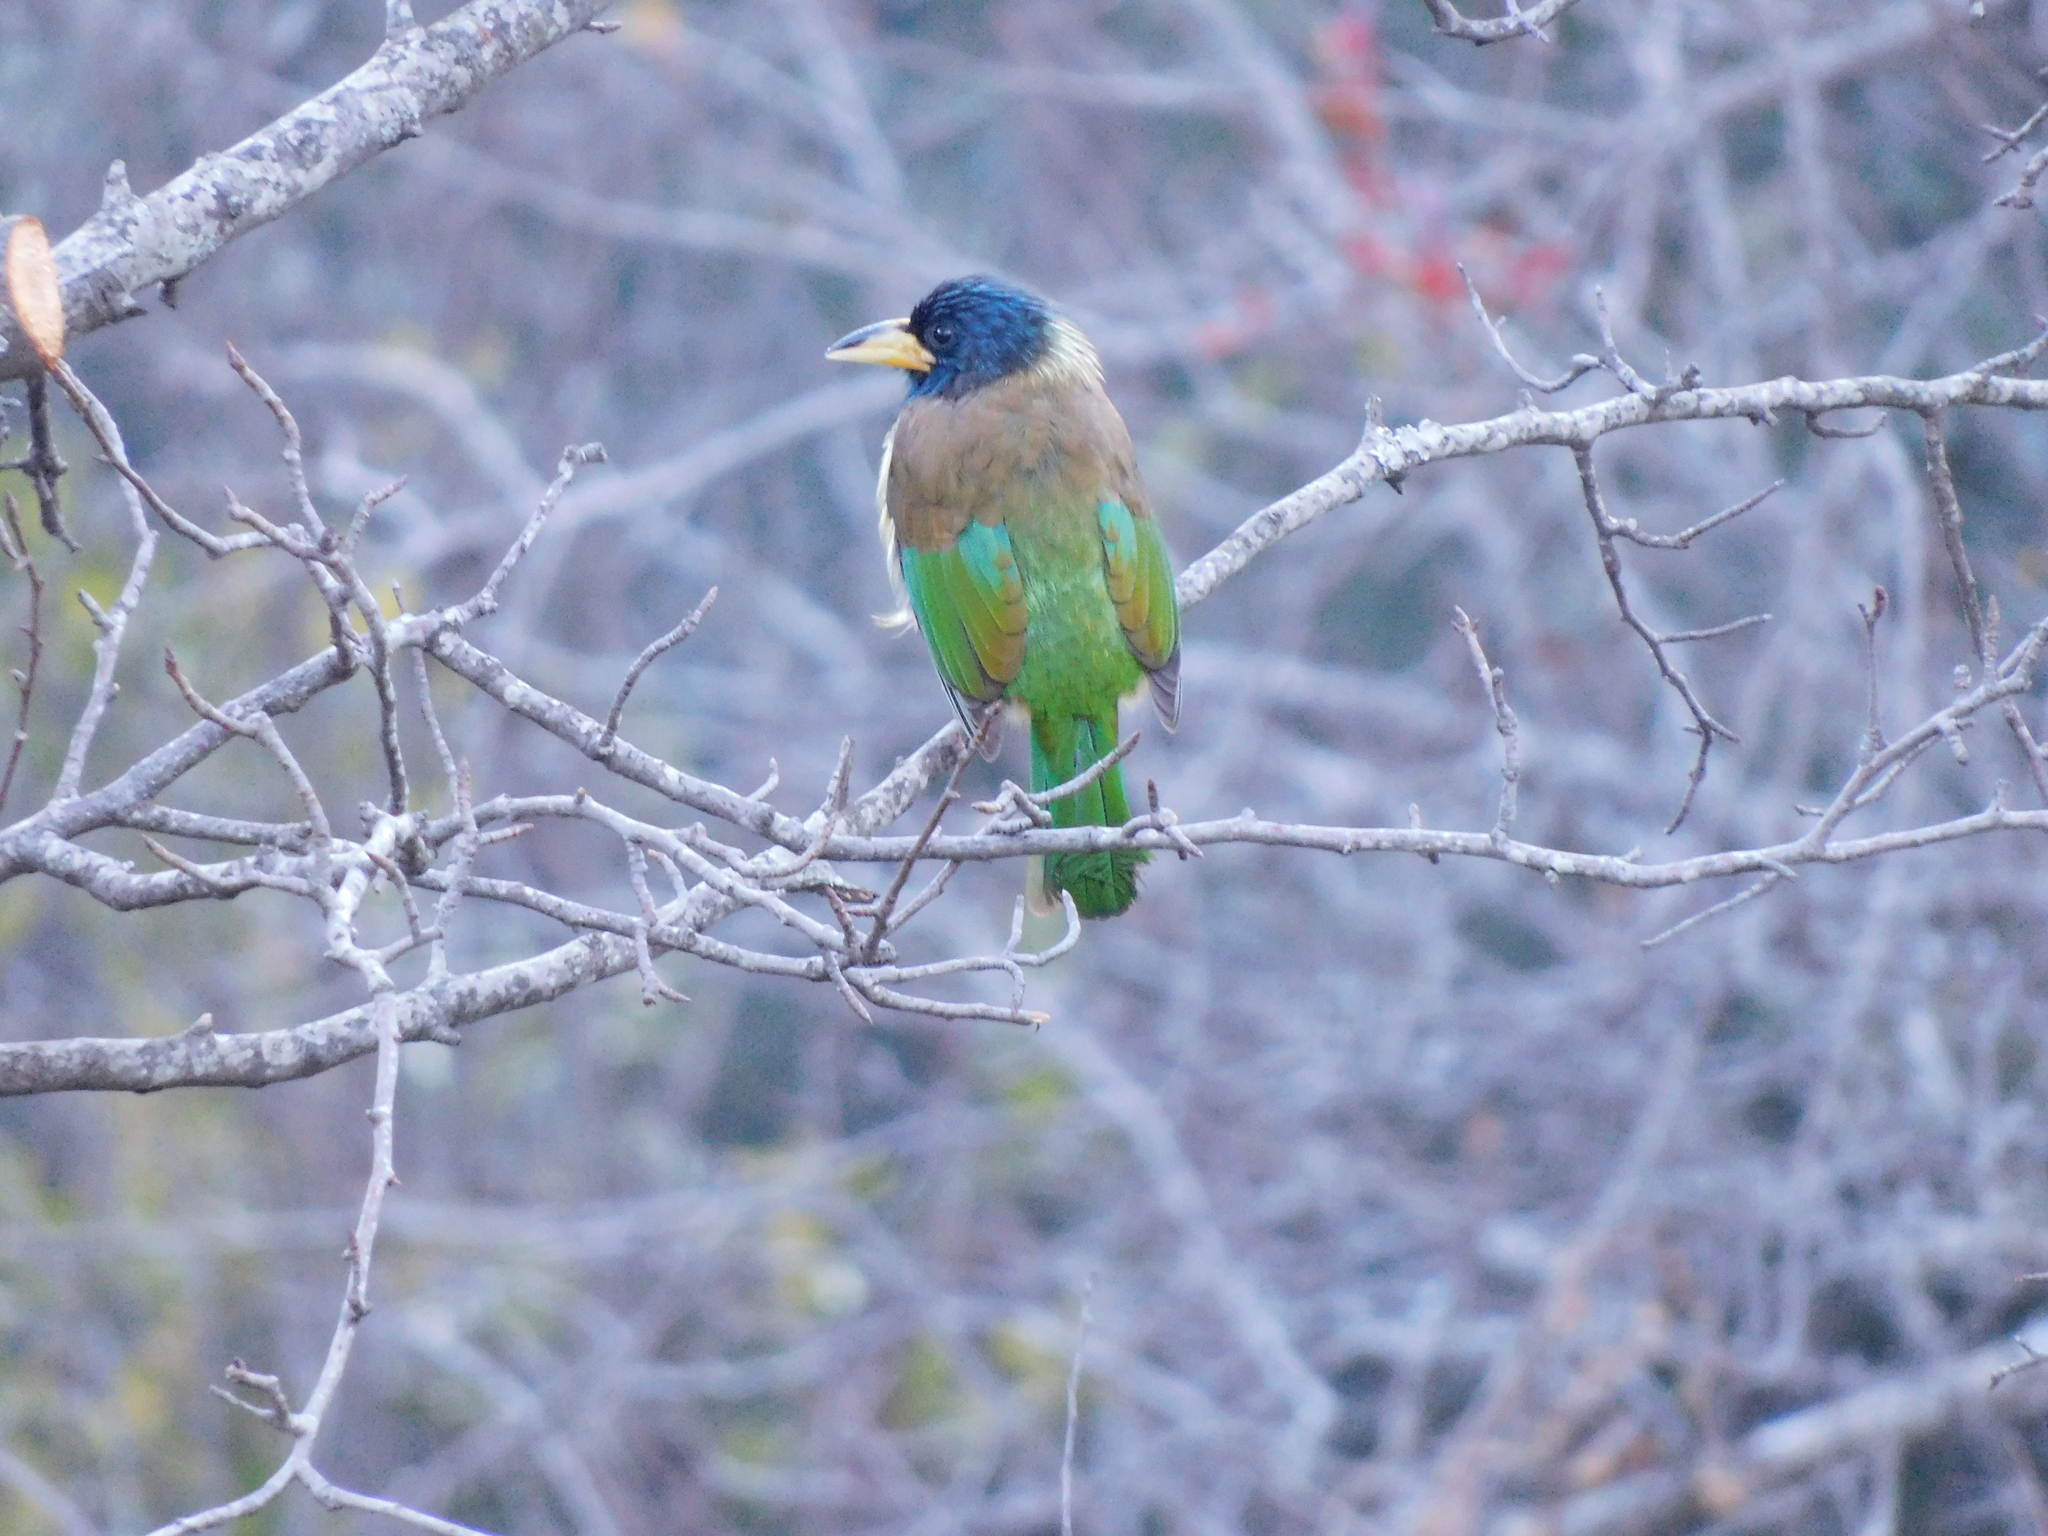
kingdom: Animalia
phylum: Chordata
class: Aves
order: Piciformes
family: Megalaimidae
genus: Psilopogon
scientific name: Psilopogon virens
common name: Great barbet
